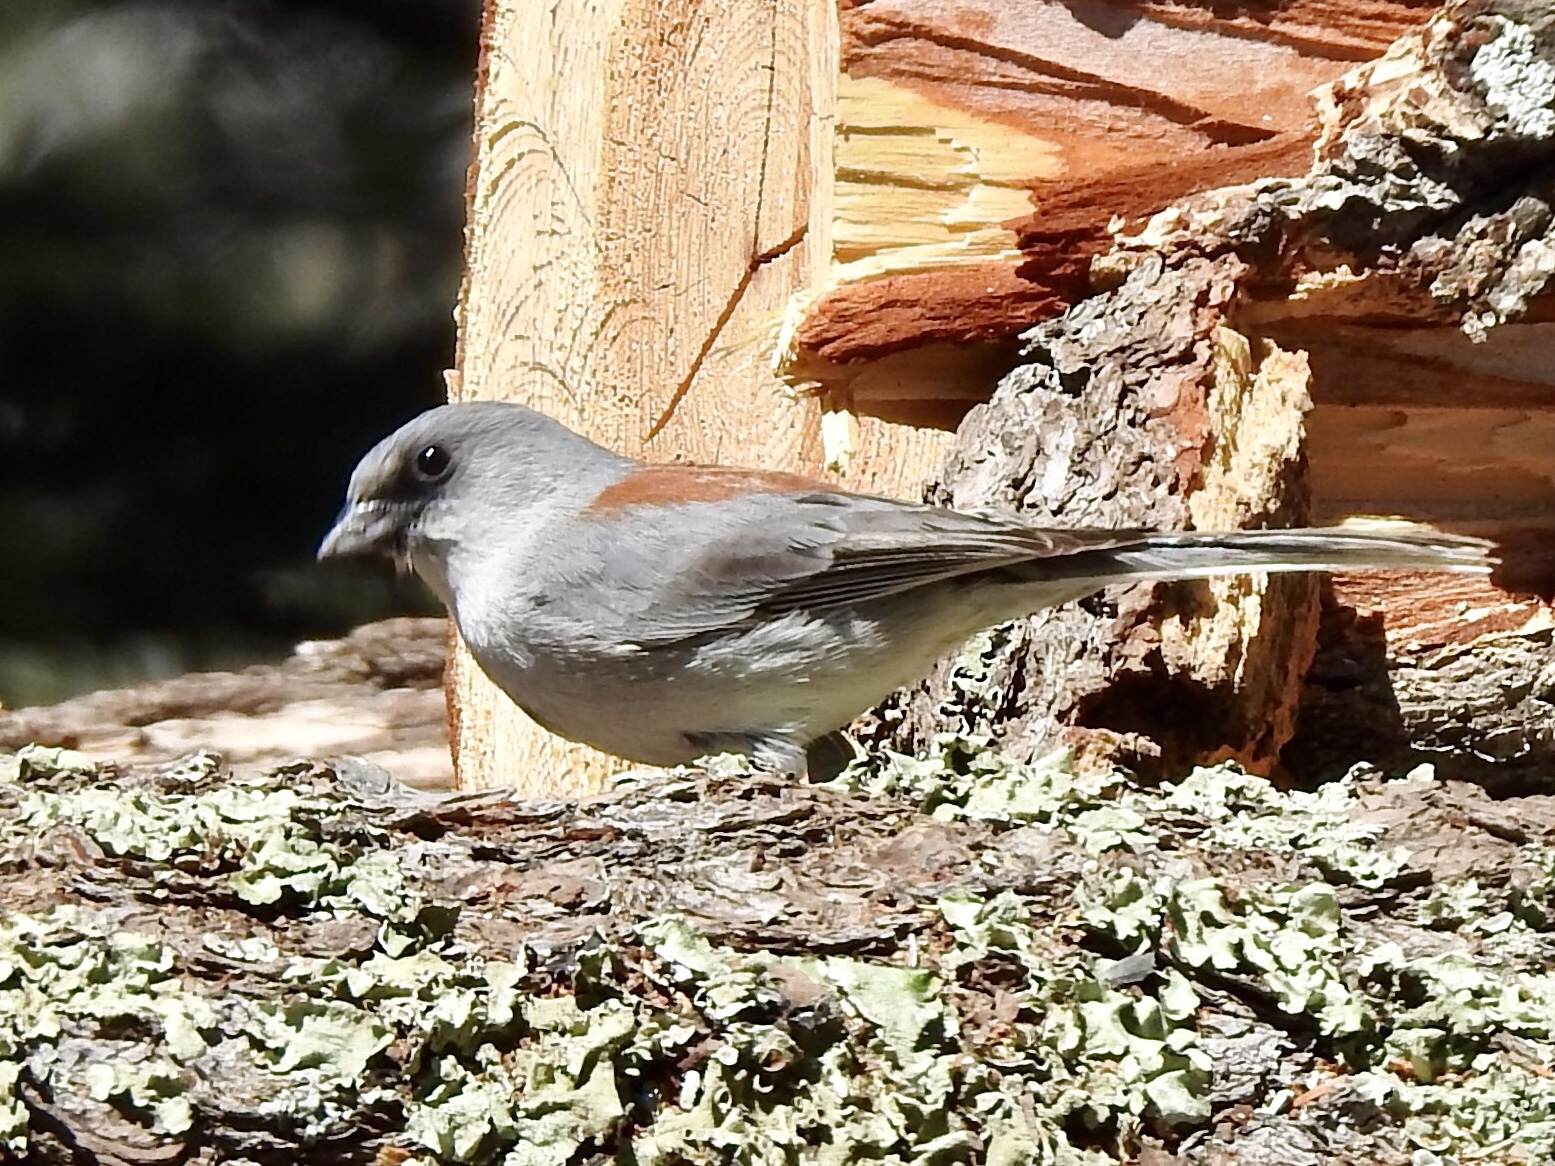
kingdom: Animalia
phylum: Chordata
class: Aves
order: Passeriformes
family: Passerellidae
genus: Junco
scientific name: Junco hyemalis
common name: Dark-eyed junco
